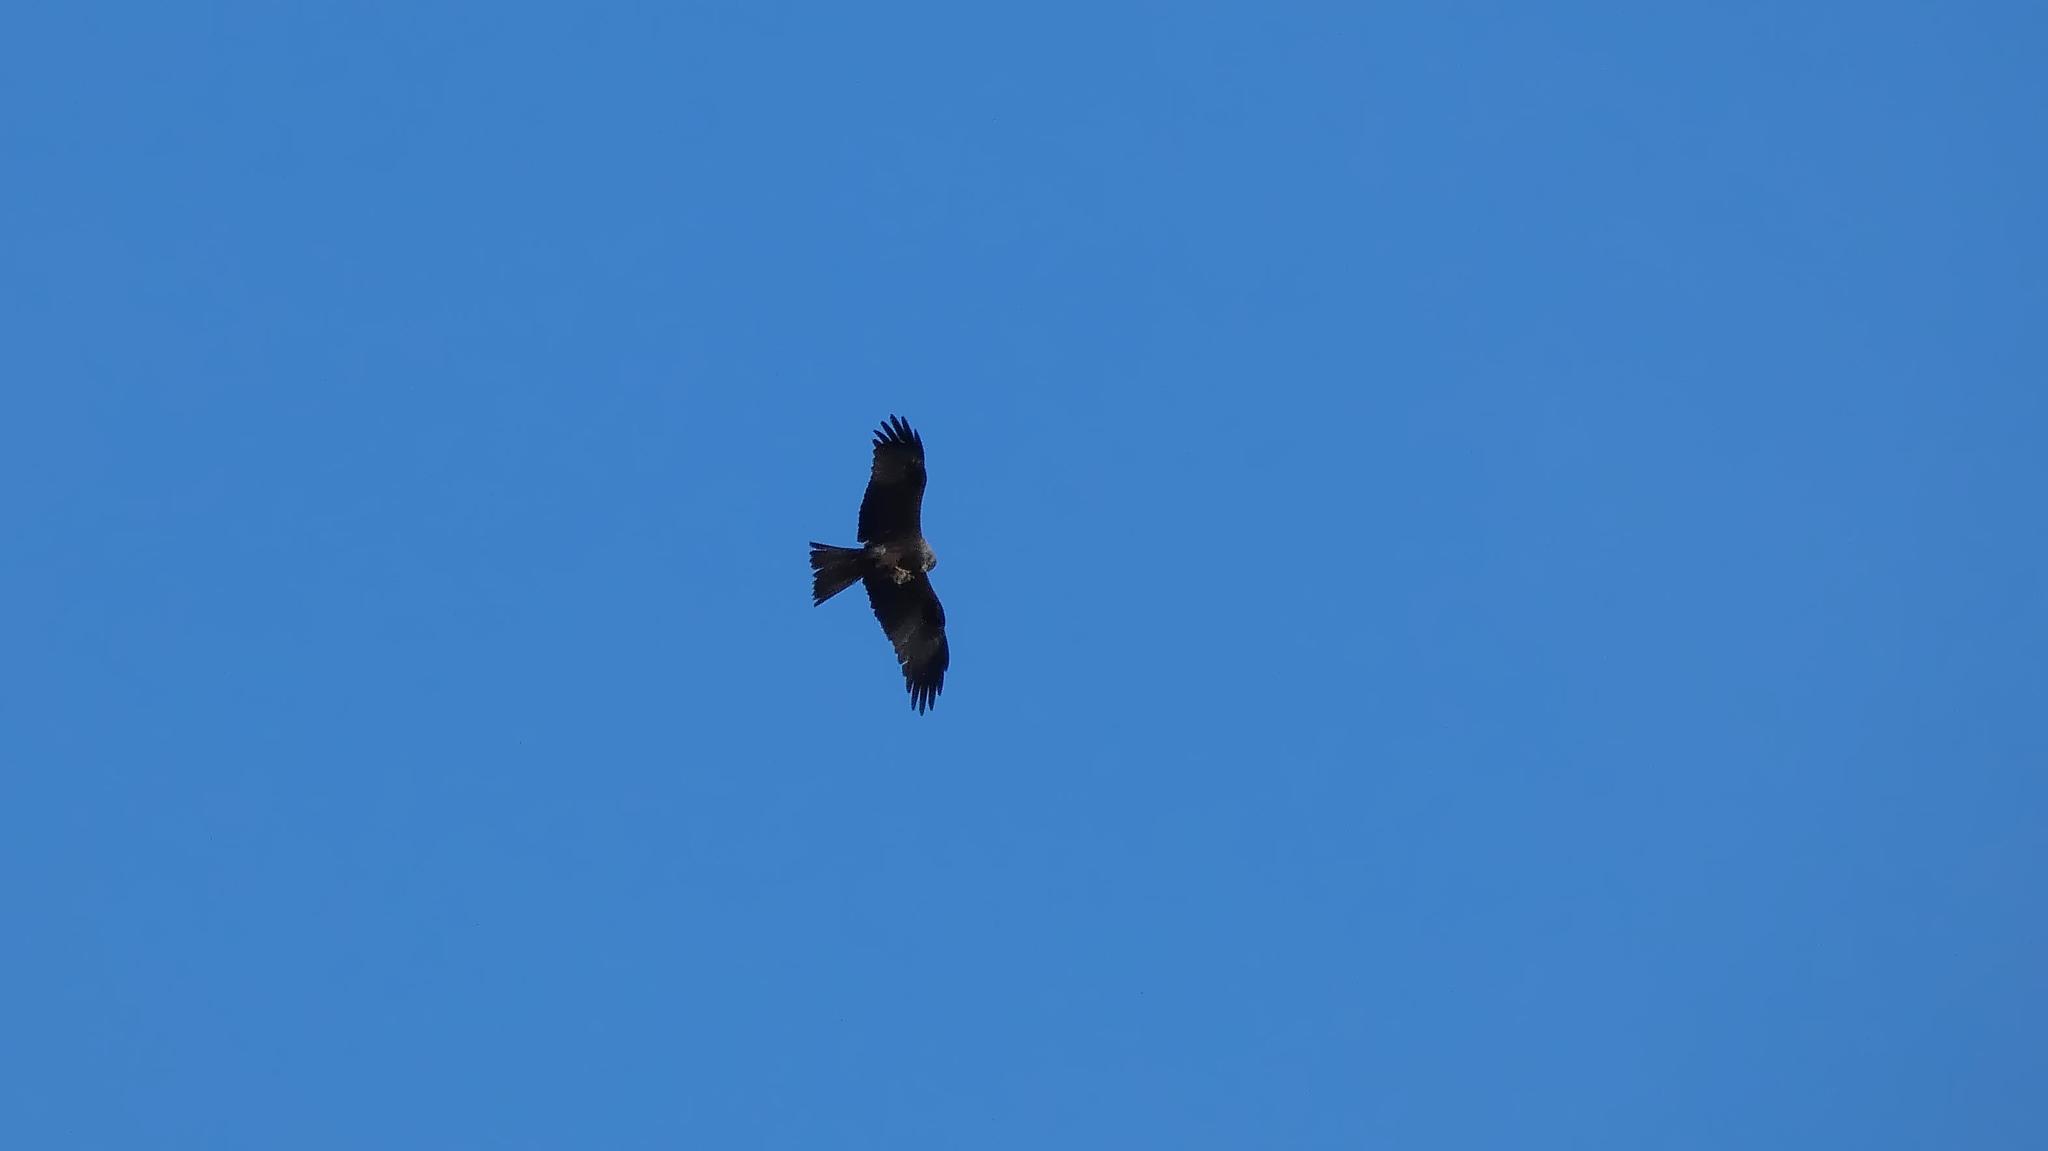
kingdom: Animalia
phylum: Chordata
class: Aves
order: Accipitriformes
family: Accipitridae
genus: Milvus
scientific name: Milvus migrans
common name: Black kite
